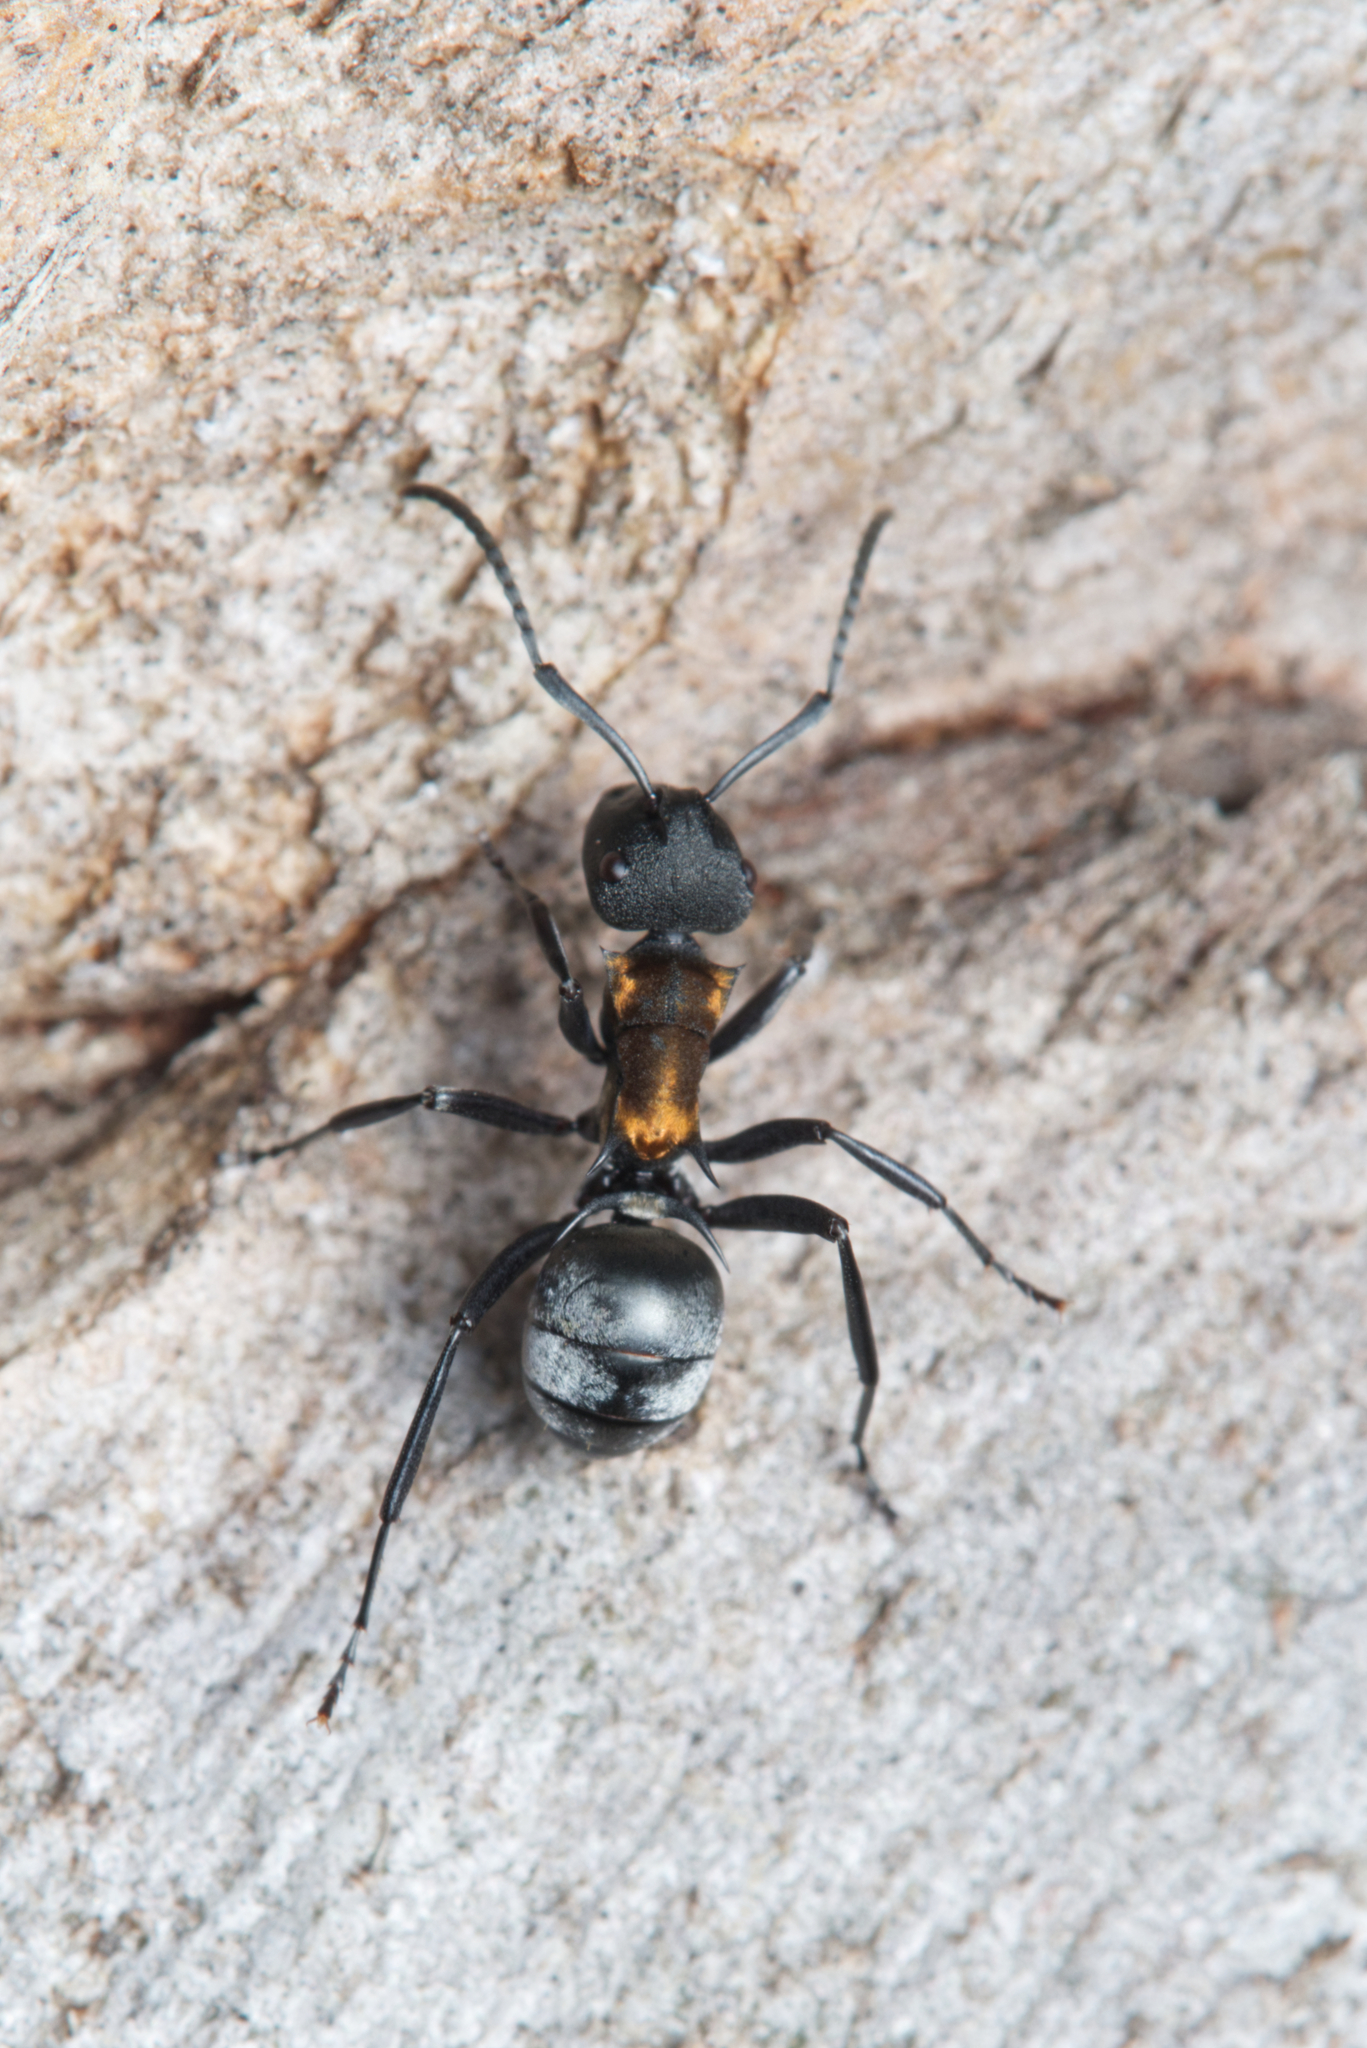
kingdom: Animalia
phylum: Arthropoda
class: Insecta
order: Hymenoptera
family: Formicidae
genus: Polyrhachis
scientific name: Polyrhachis ornata
